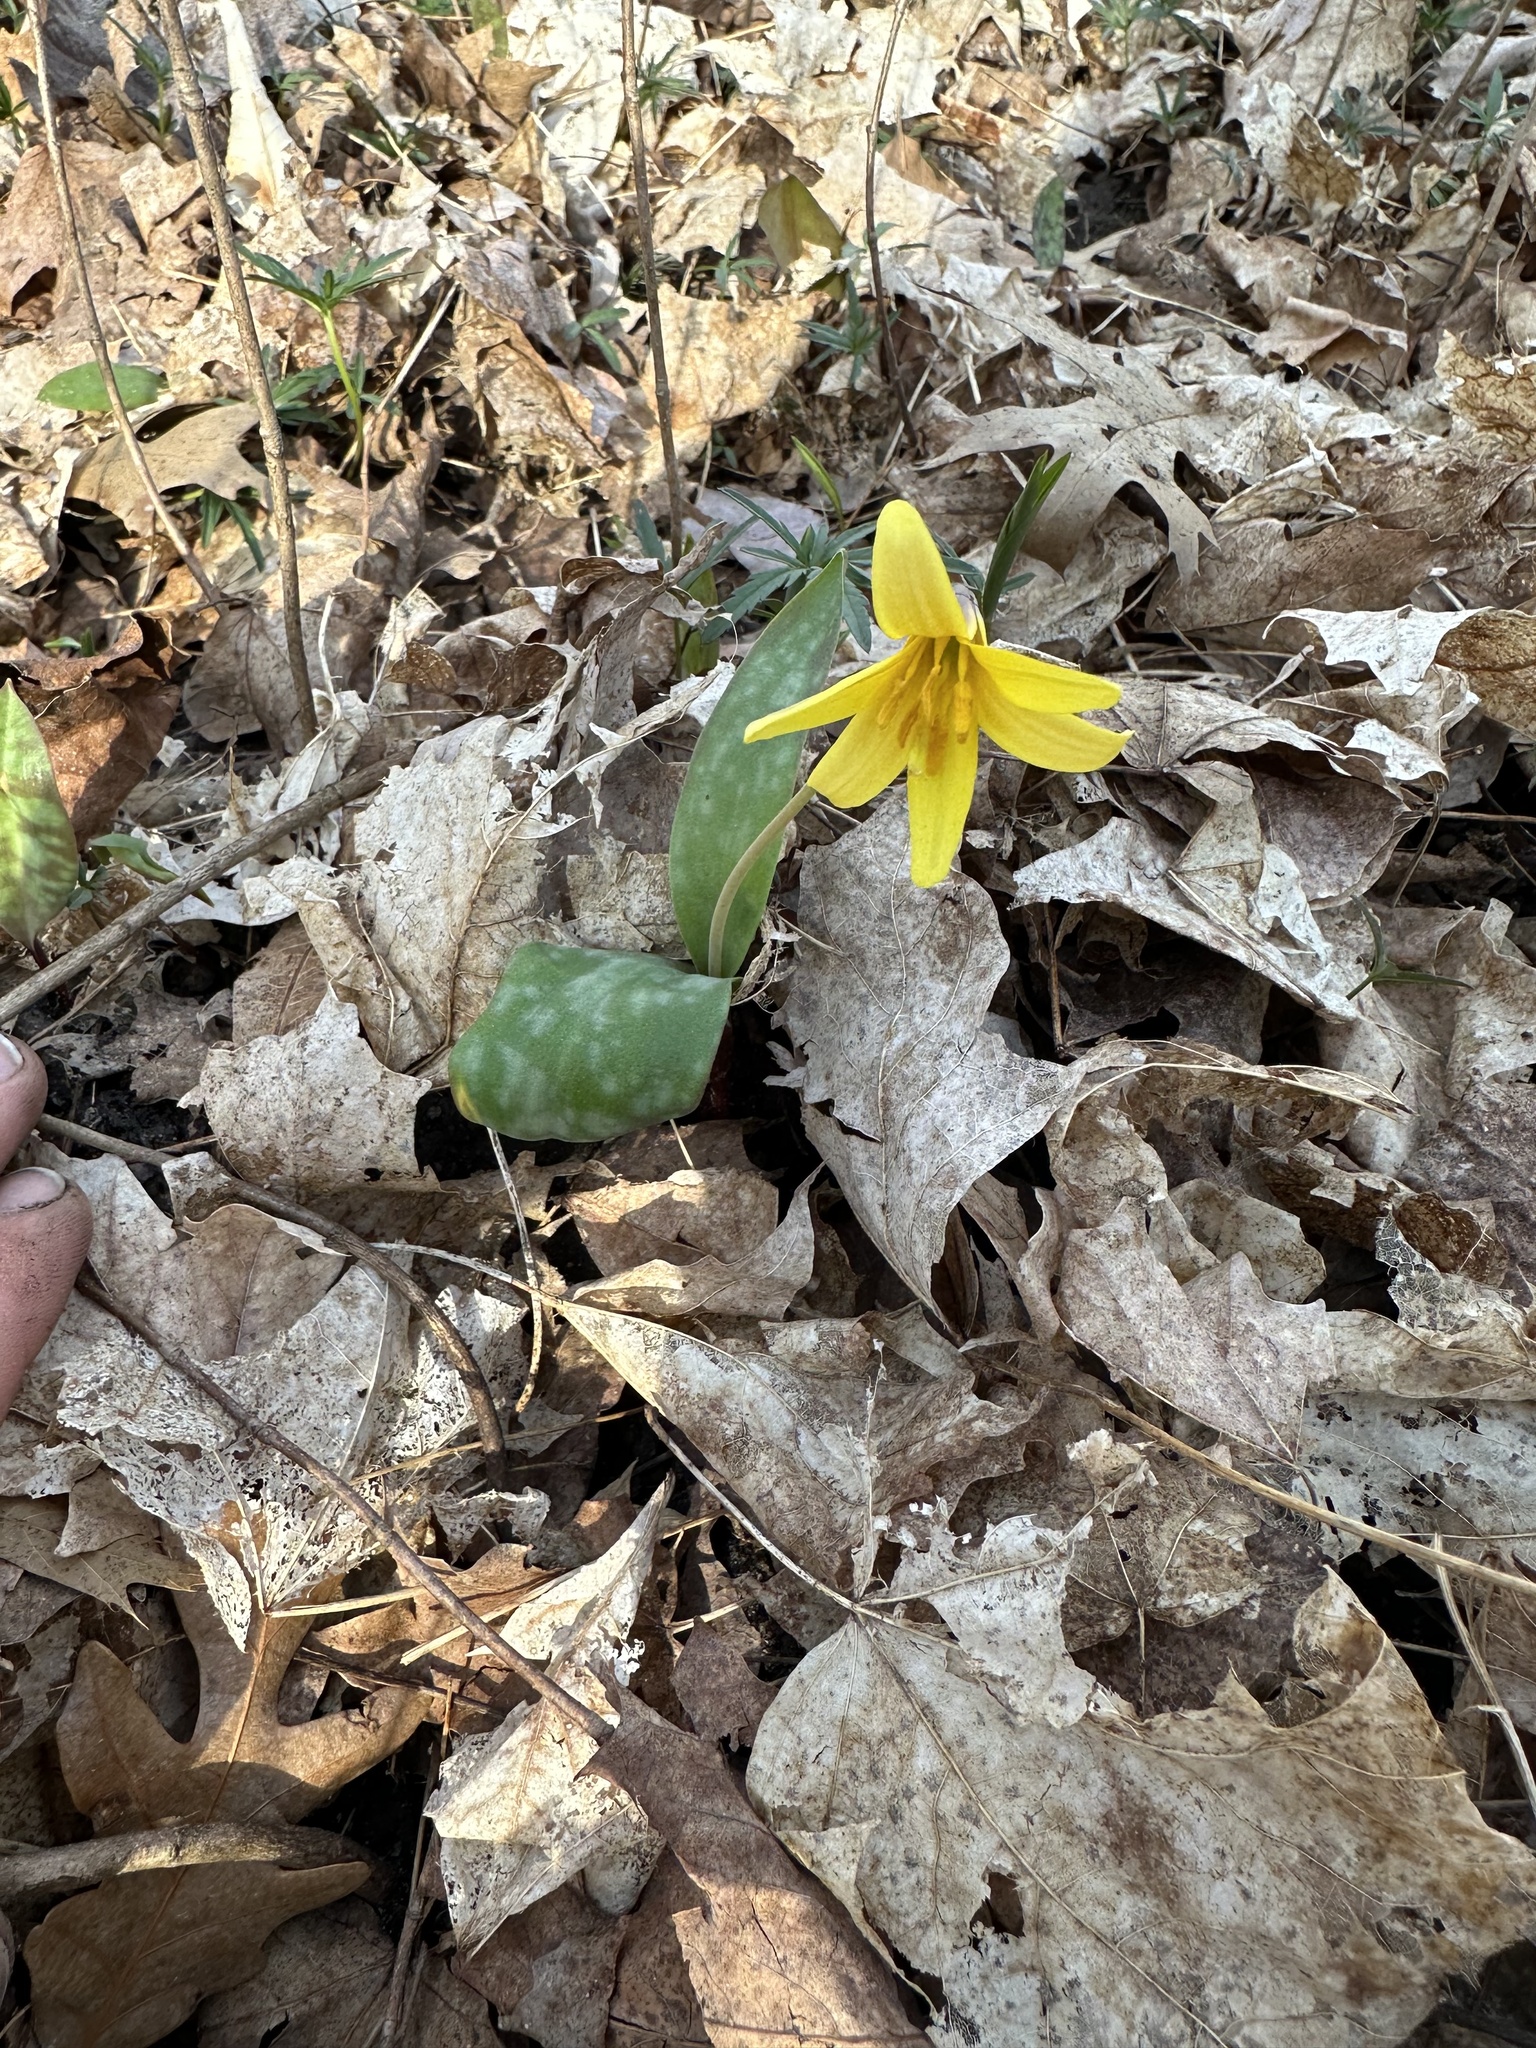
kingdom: Plantae
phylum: Tracheophyta
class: Liliopsida
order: Liliales
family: Liliaceae
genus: Erythronium
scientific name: Erythronium americanum
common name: Yellow adder's-tongue
